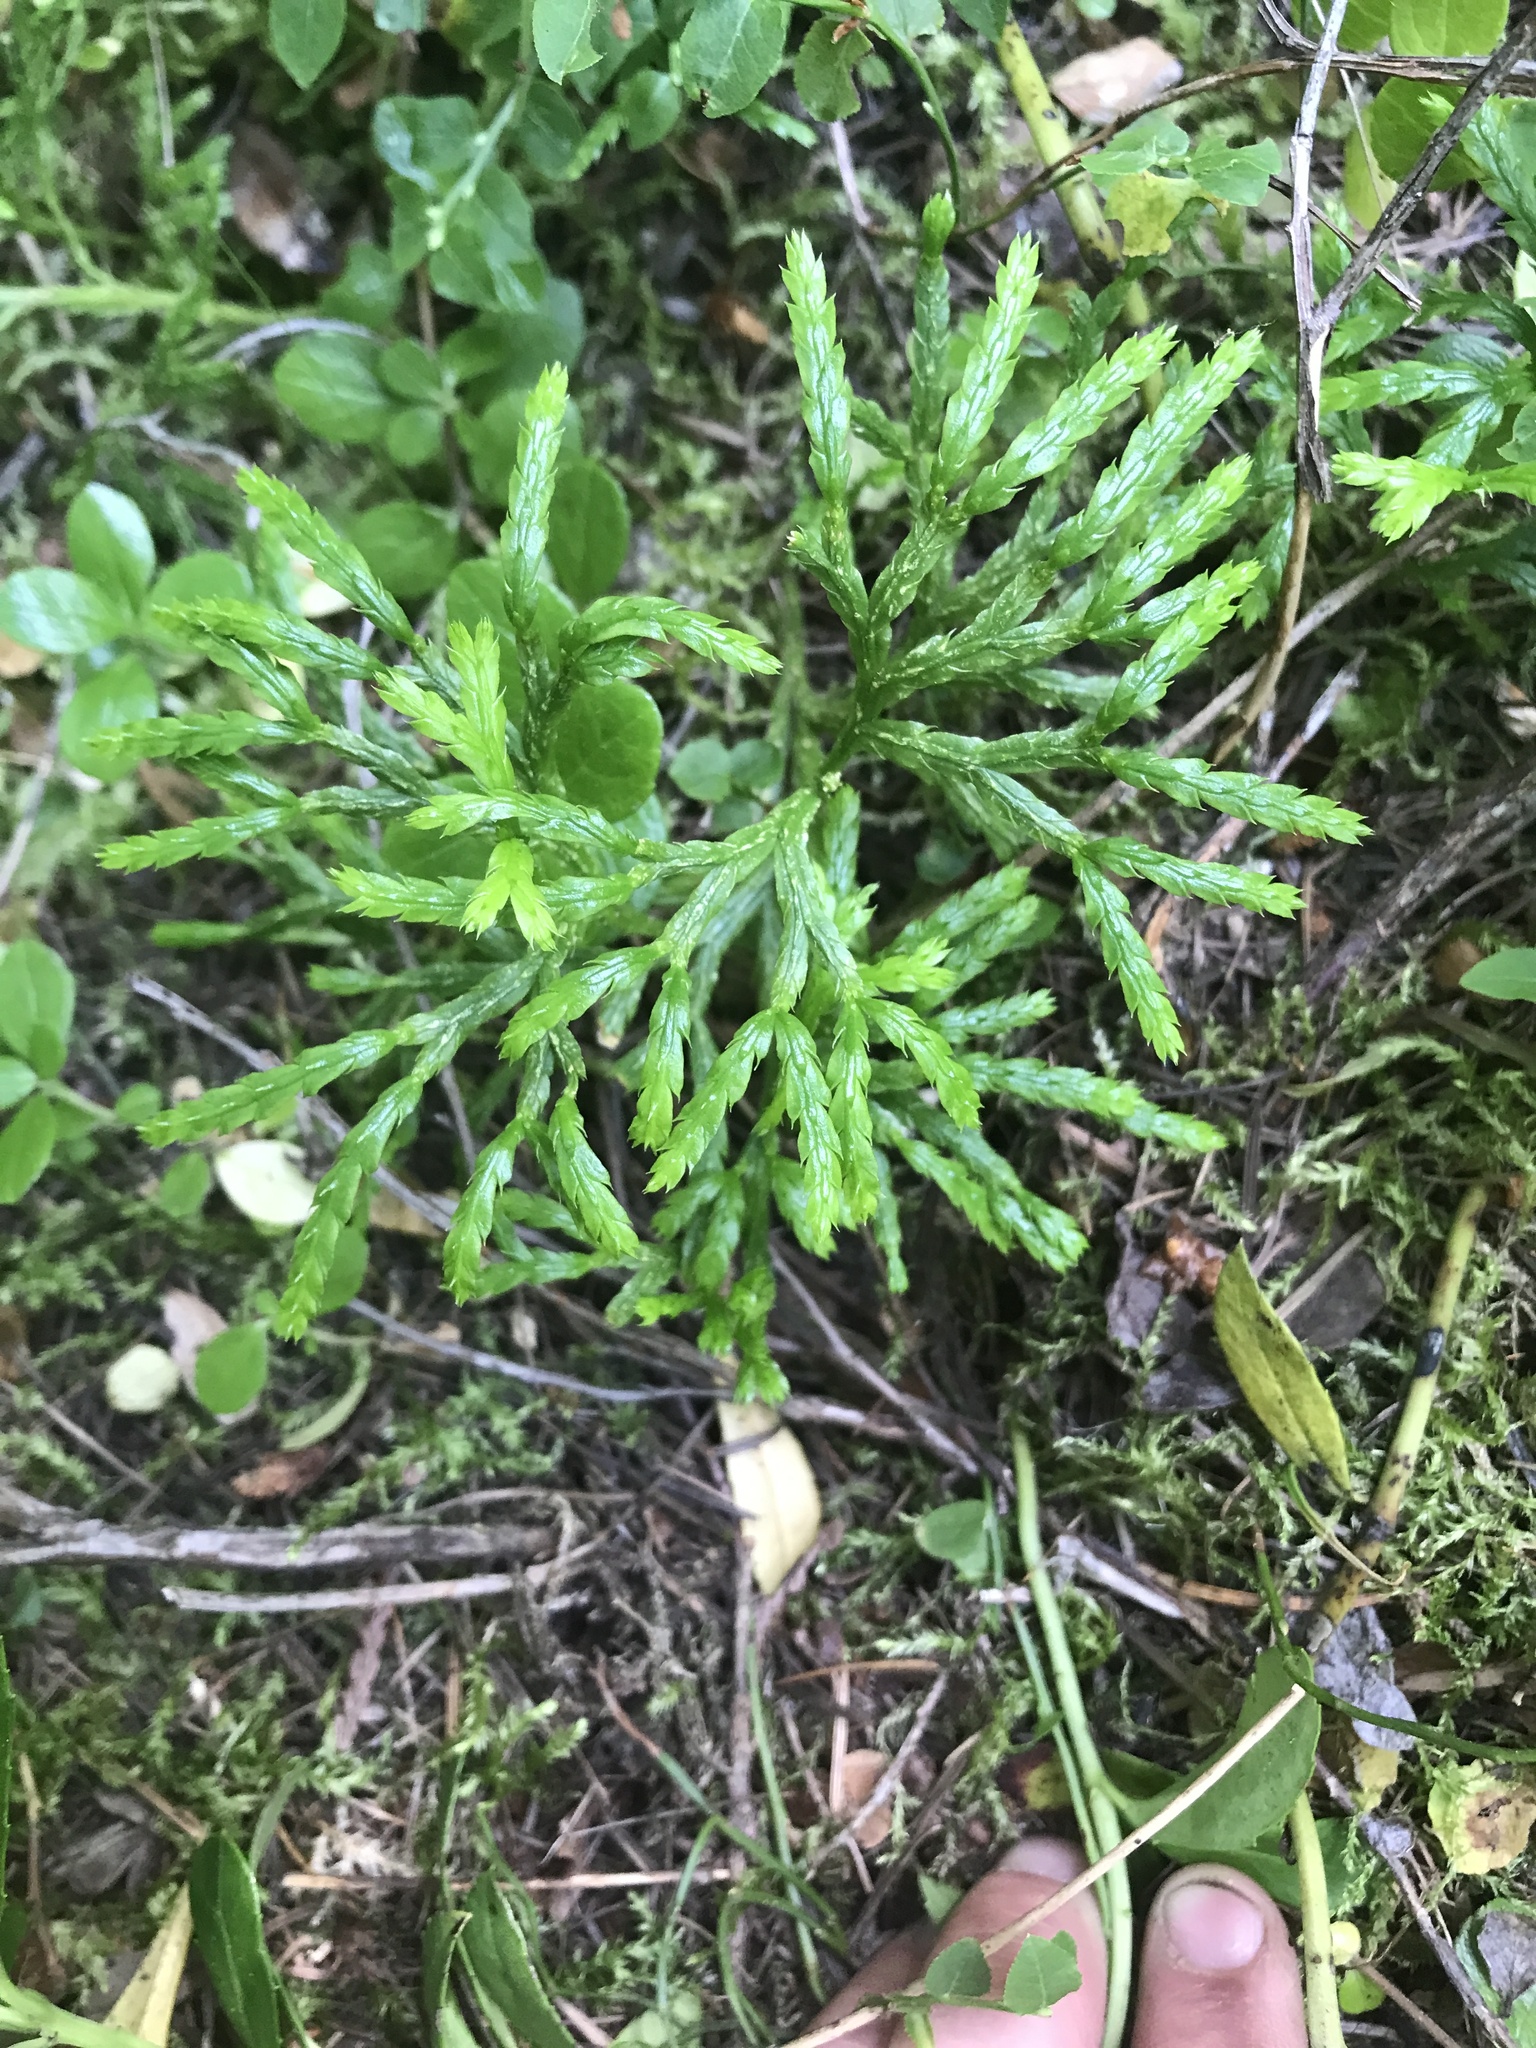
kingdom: Plantae
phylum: Tracheophyta
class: Lycopodiopsida
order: Lycopodiales
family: Lycopodiaceae
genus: Diphasiastrum
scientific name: Diphasiastrum complanatum
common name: Northern running-pine
